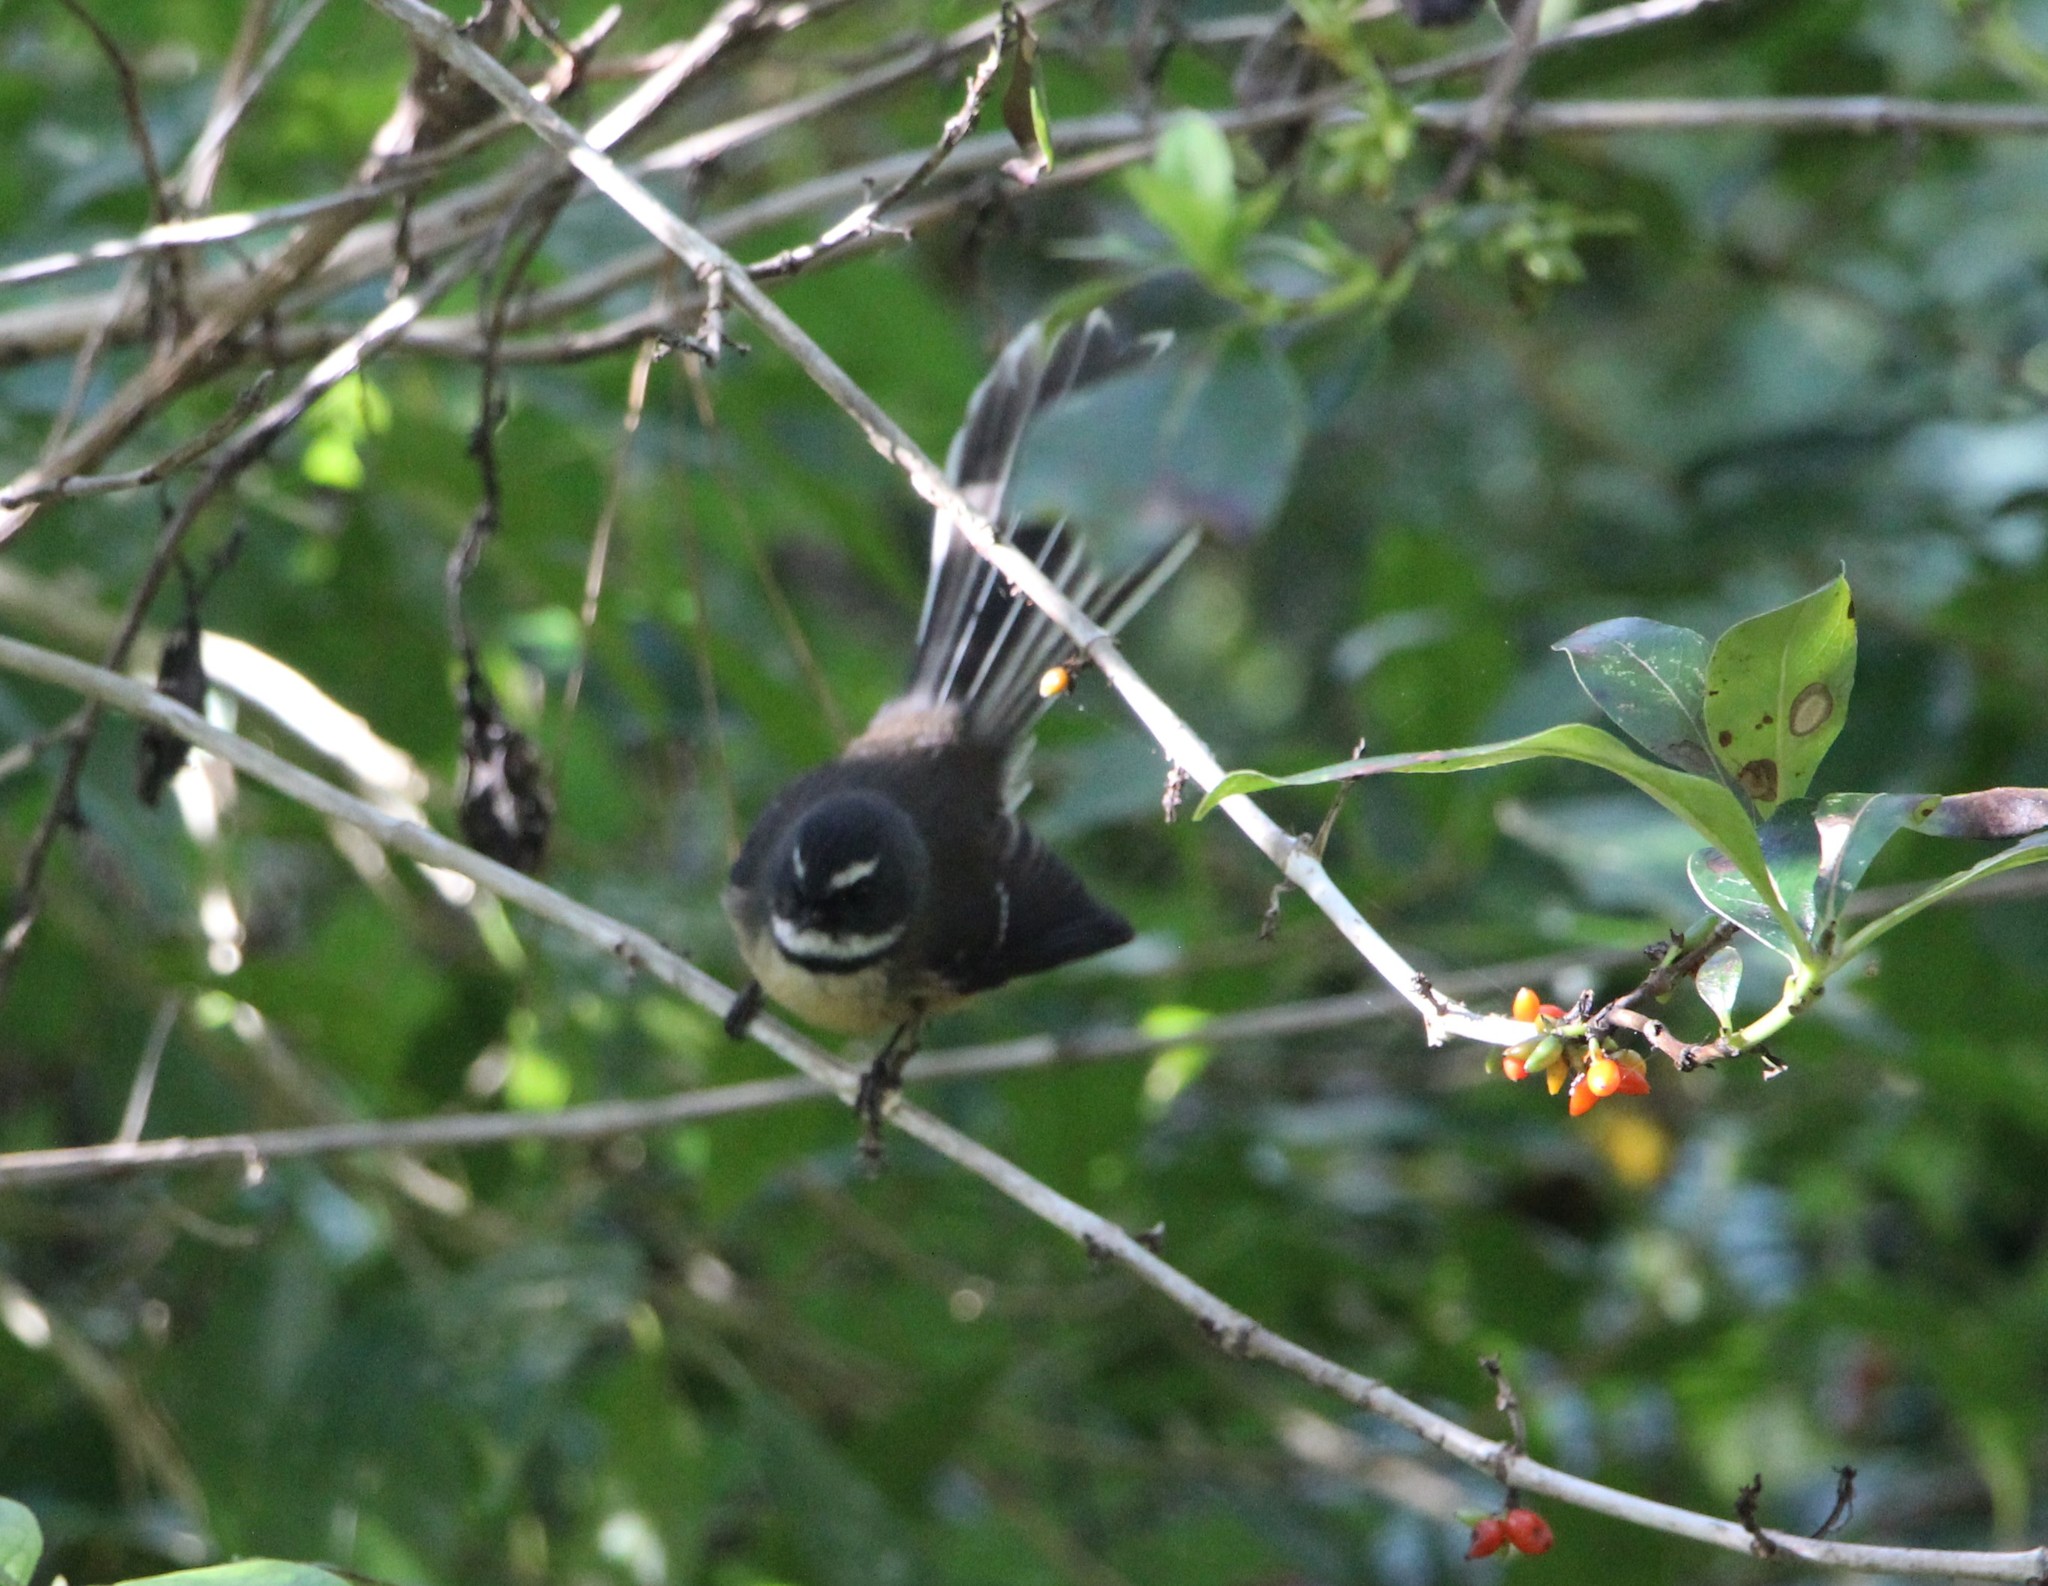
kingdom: Animalia
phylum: Chordata
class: Aves
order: Passeriformes
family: Rhipiduridae
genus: Rhipidura
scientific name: Rhipidura fuliginosa
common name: New zealand fantail
